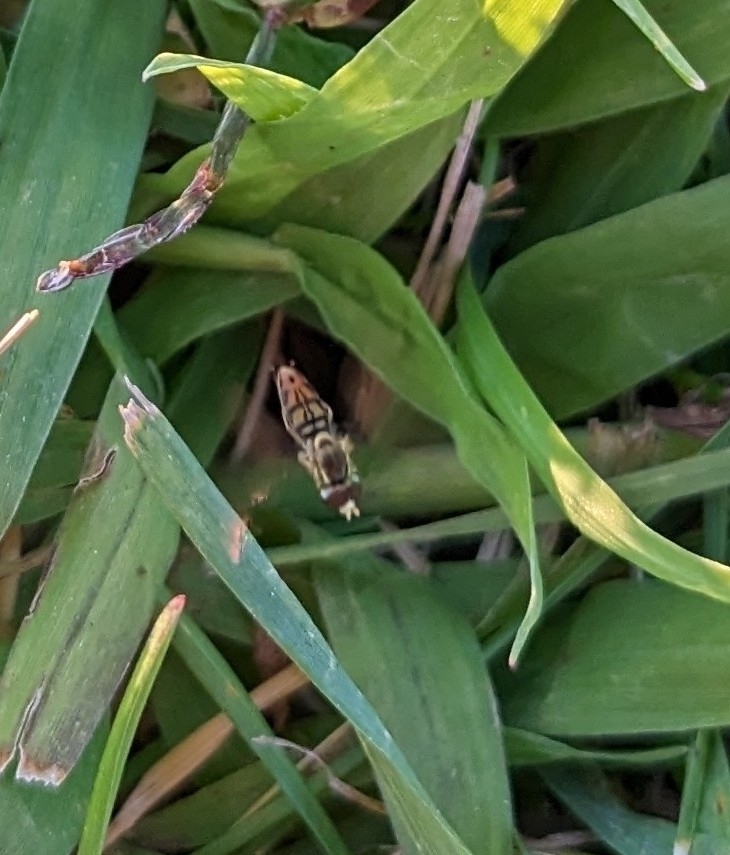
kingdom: Animalia
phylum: Arthropoda
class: Insecta
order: Diptera
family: Syrphidae
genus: Toxomerus
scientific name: Toxomerus marginatus
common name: Syrphid fly
